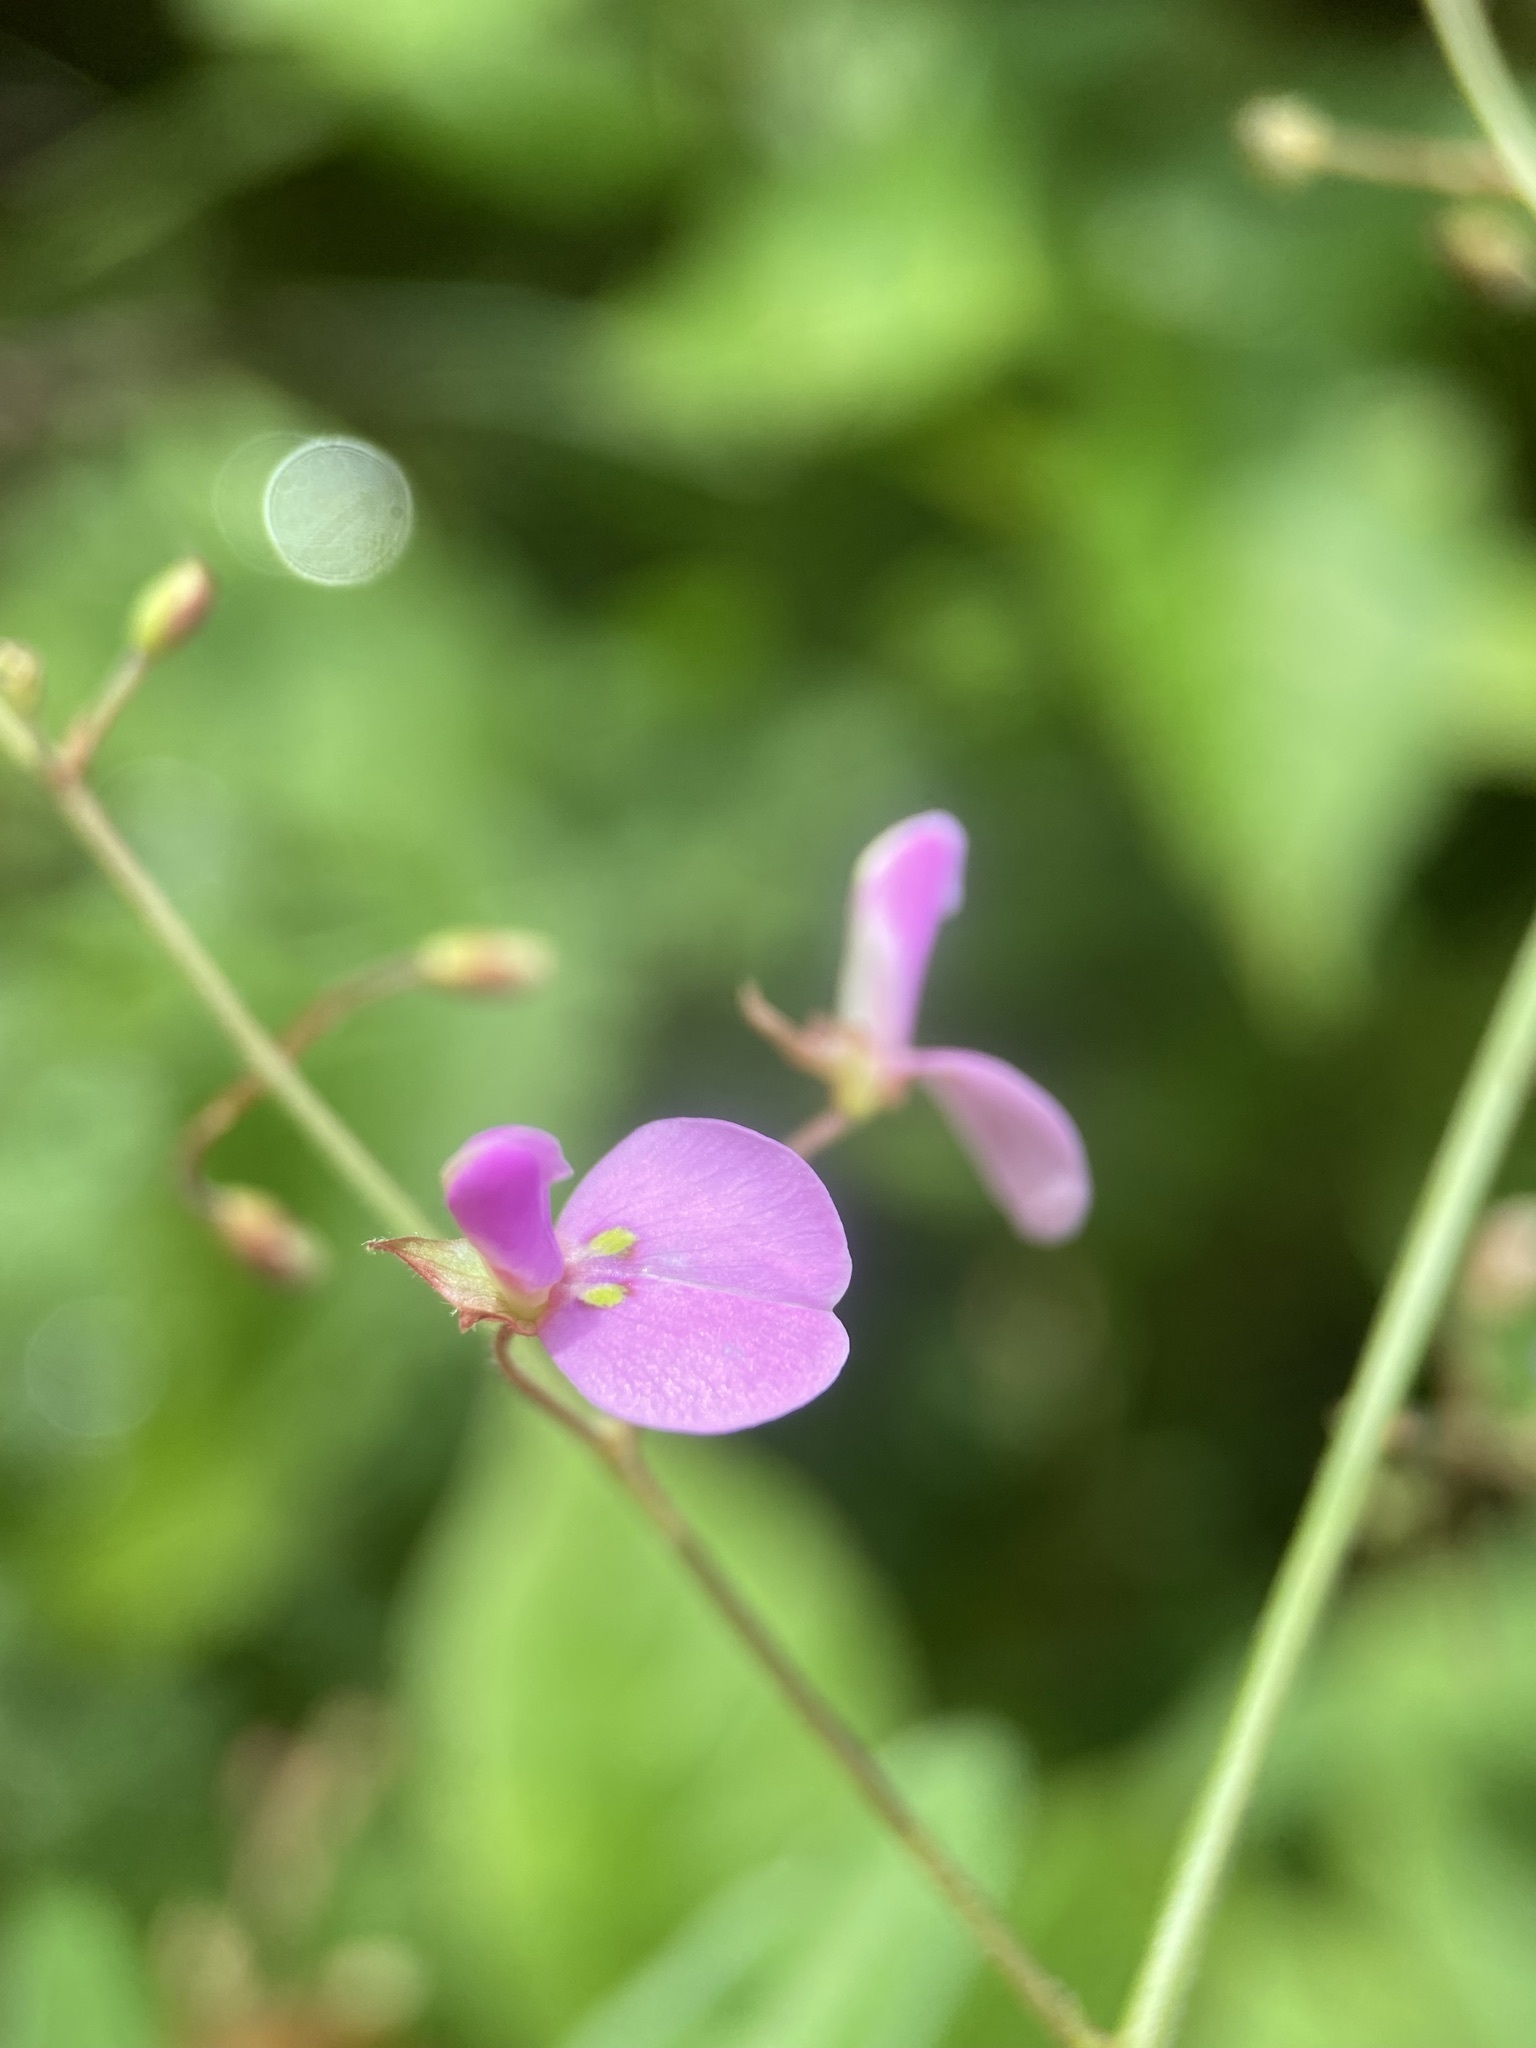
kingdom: Plantae
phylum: Tracheophyta
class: Magnoliopsida
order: Fabales
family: Fabaceae
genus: Desmodium
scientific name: Desmodium paniculatum
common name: Panicled tick-clover
